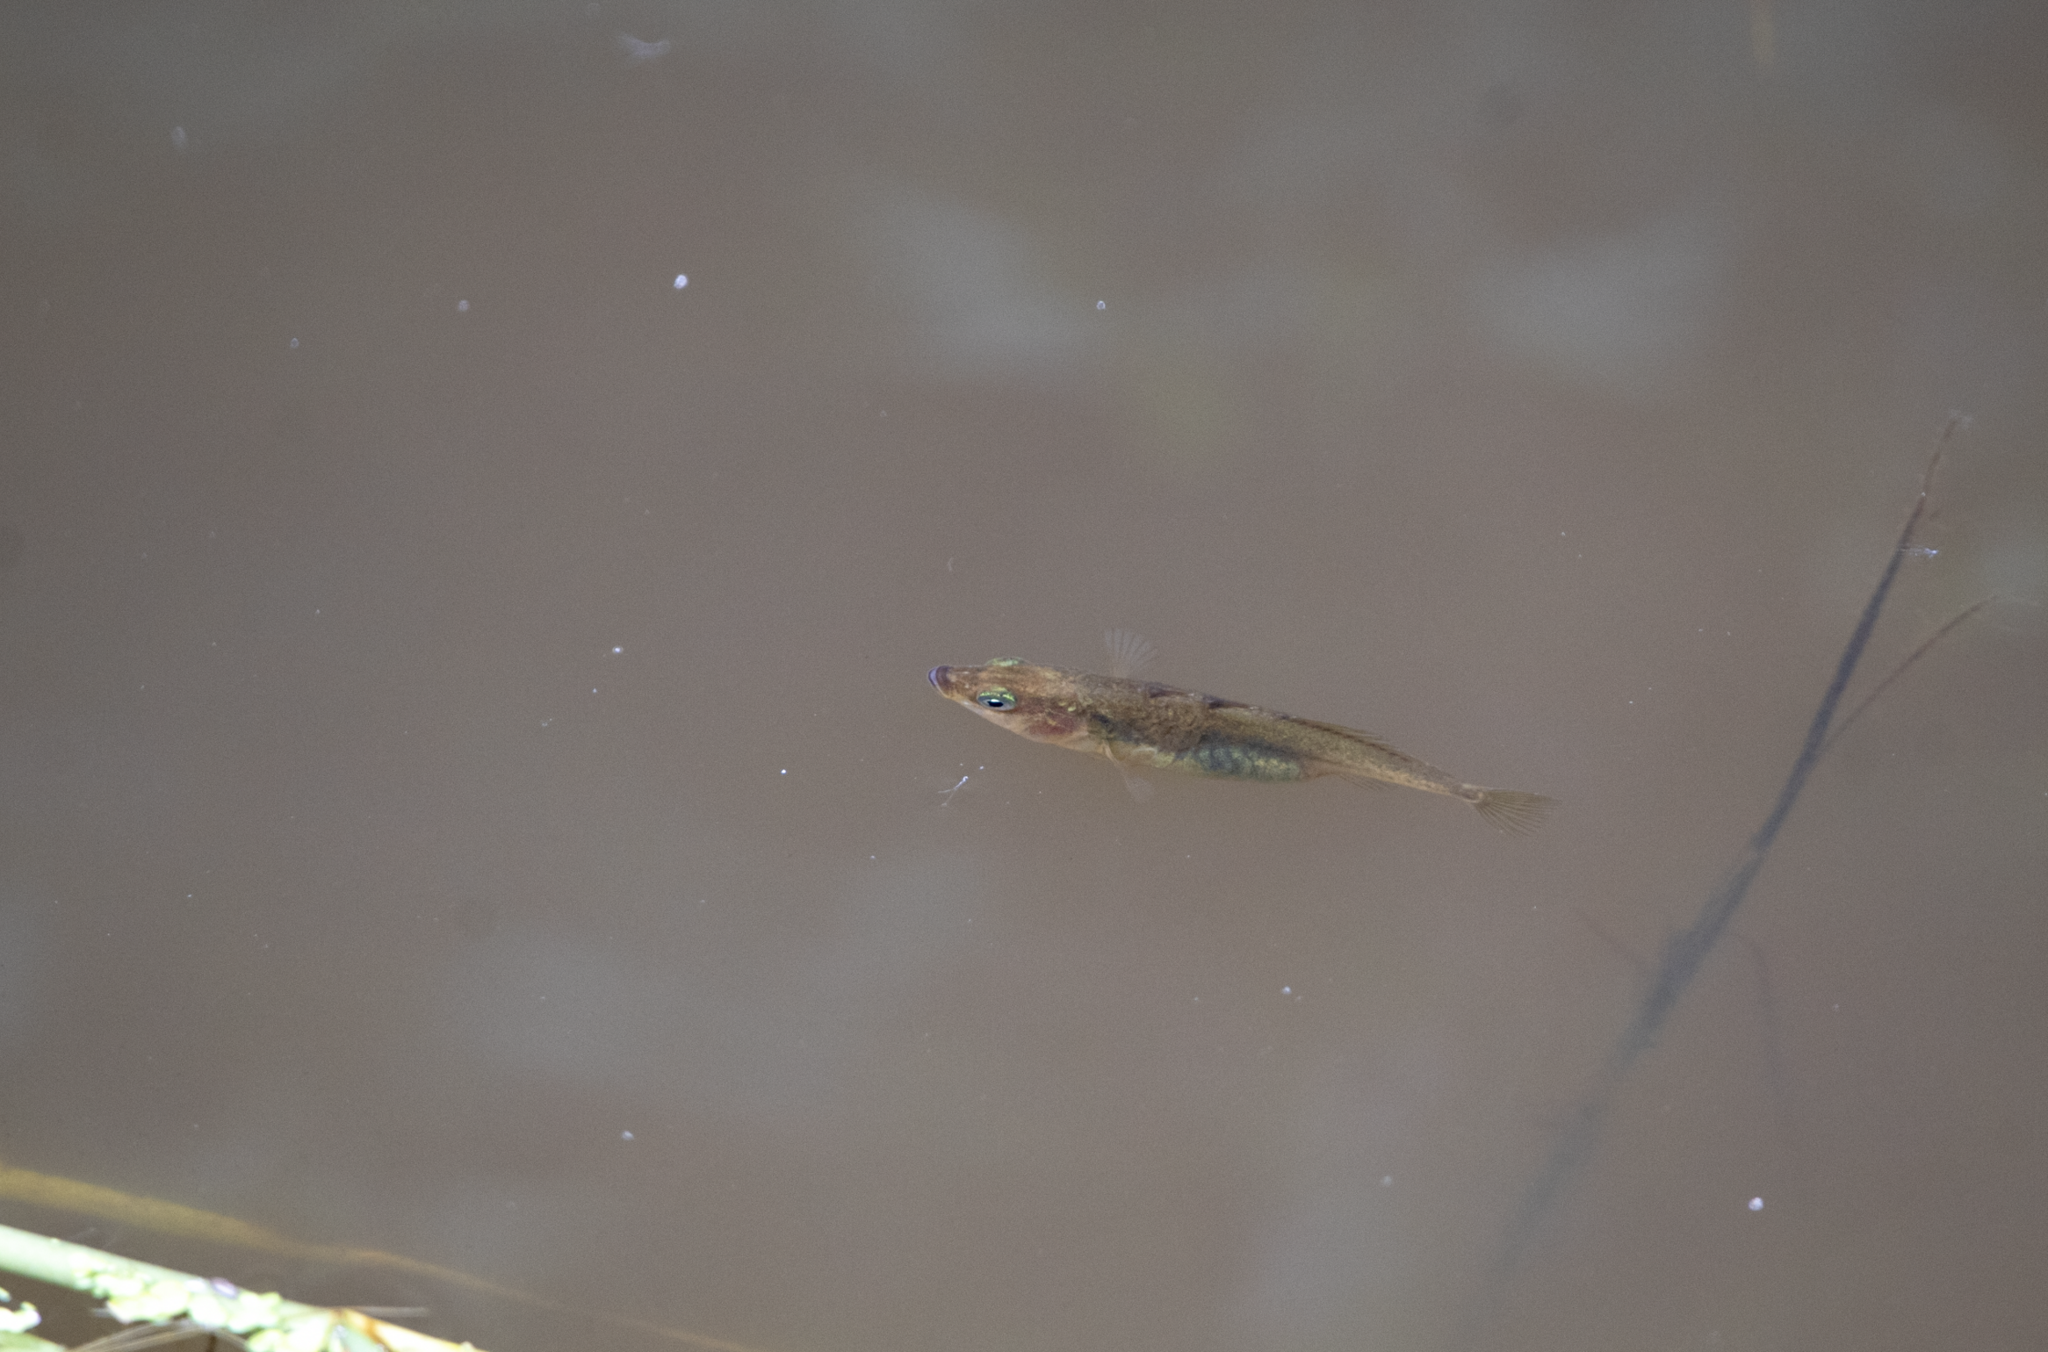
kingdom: Animalia
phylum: Chordata
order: Gasterosteiformes
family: Gasterosteidae
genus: Gasterosteus
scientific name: Gasterosteus aculeatus
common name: Three-spined stickleback
